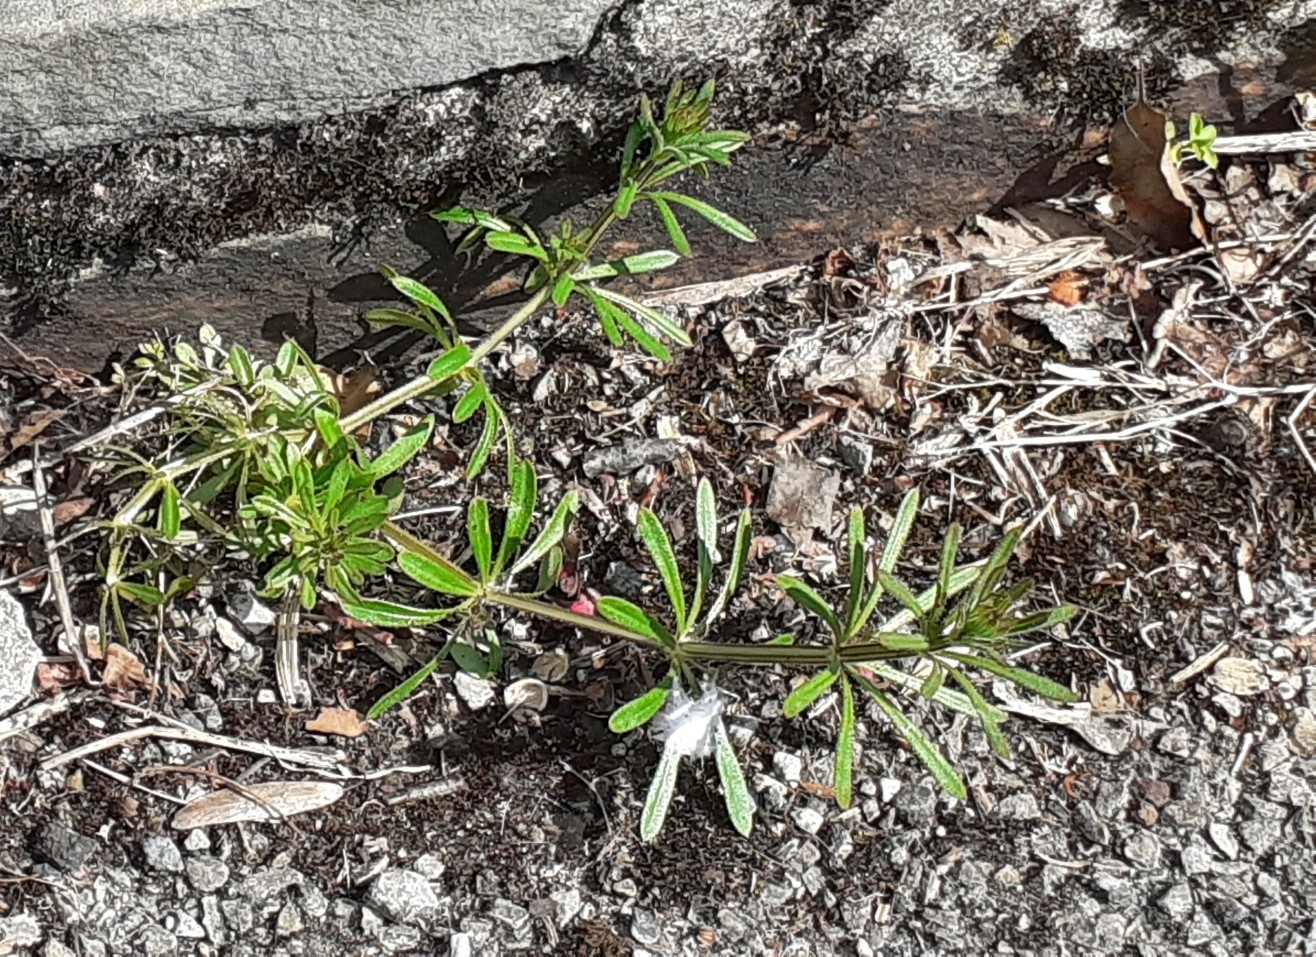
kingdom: Plantae
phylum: Tracheophyta
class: Magnoliopsida
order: Gentianales
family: Rubiaceae
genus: Galium
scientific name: Galium aparine
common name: Cleavers
